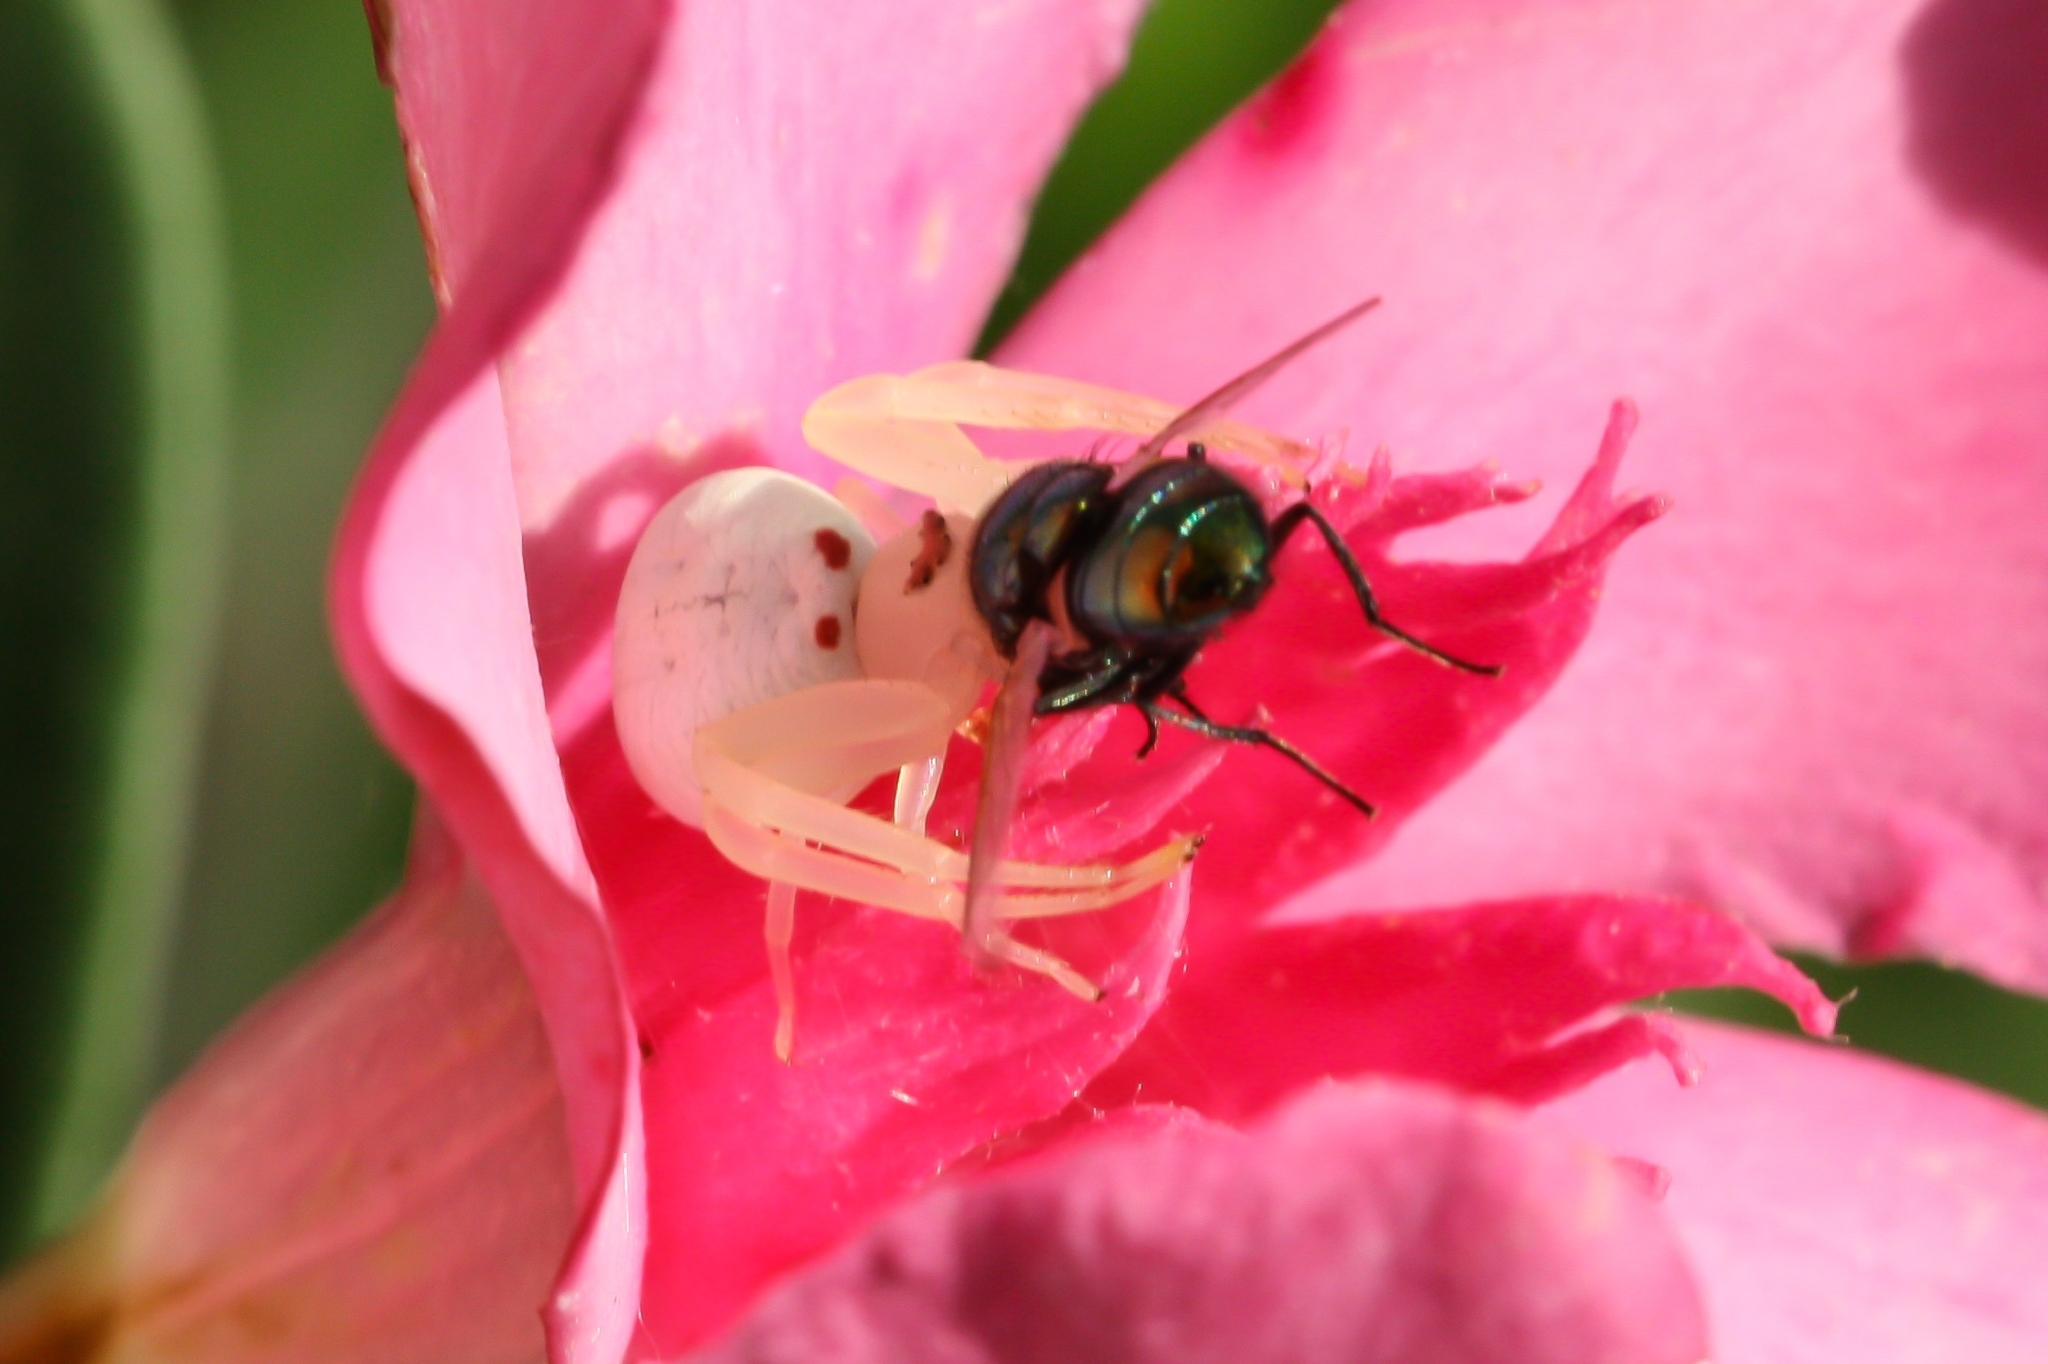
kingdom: Animalia
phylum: Arthropoda
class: Arachnida
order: Araneae
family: Thomisidae
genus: Misumena
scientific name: Misumena vatia
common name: Goldenrod crab spider
